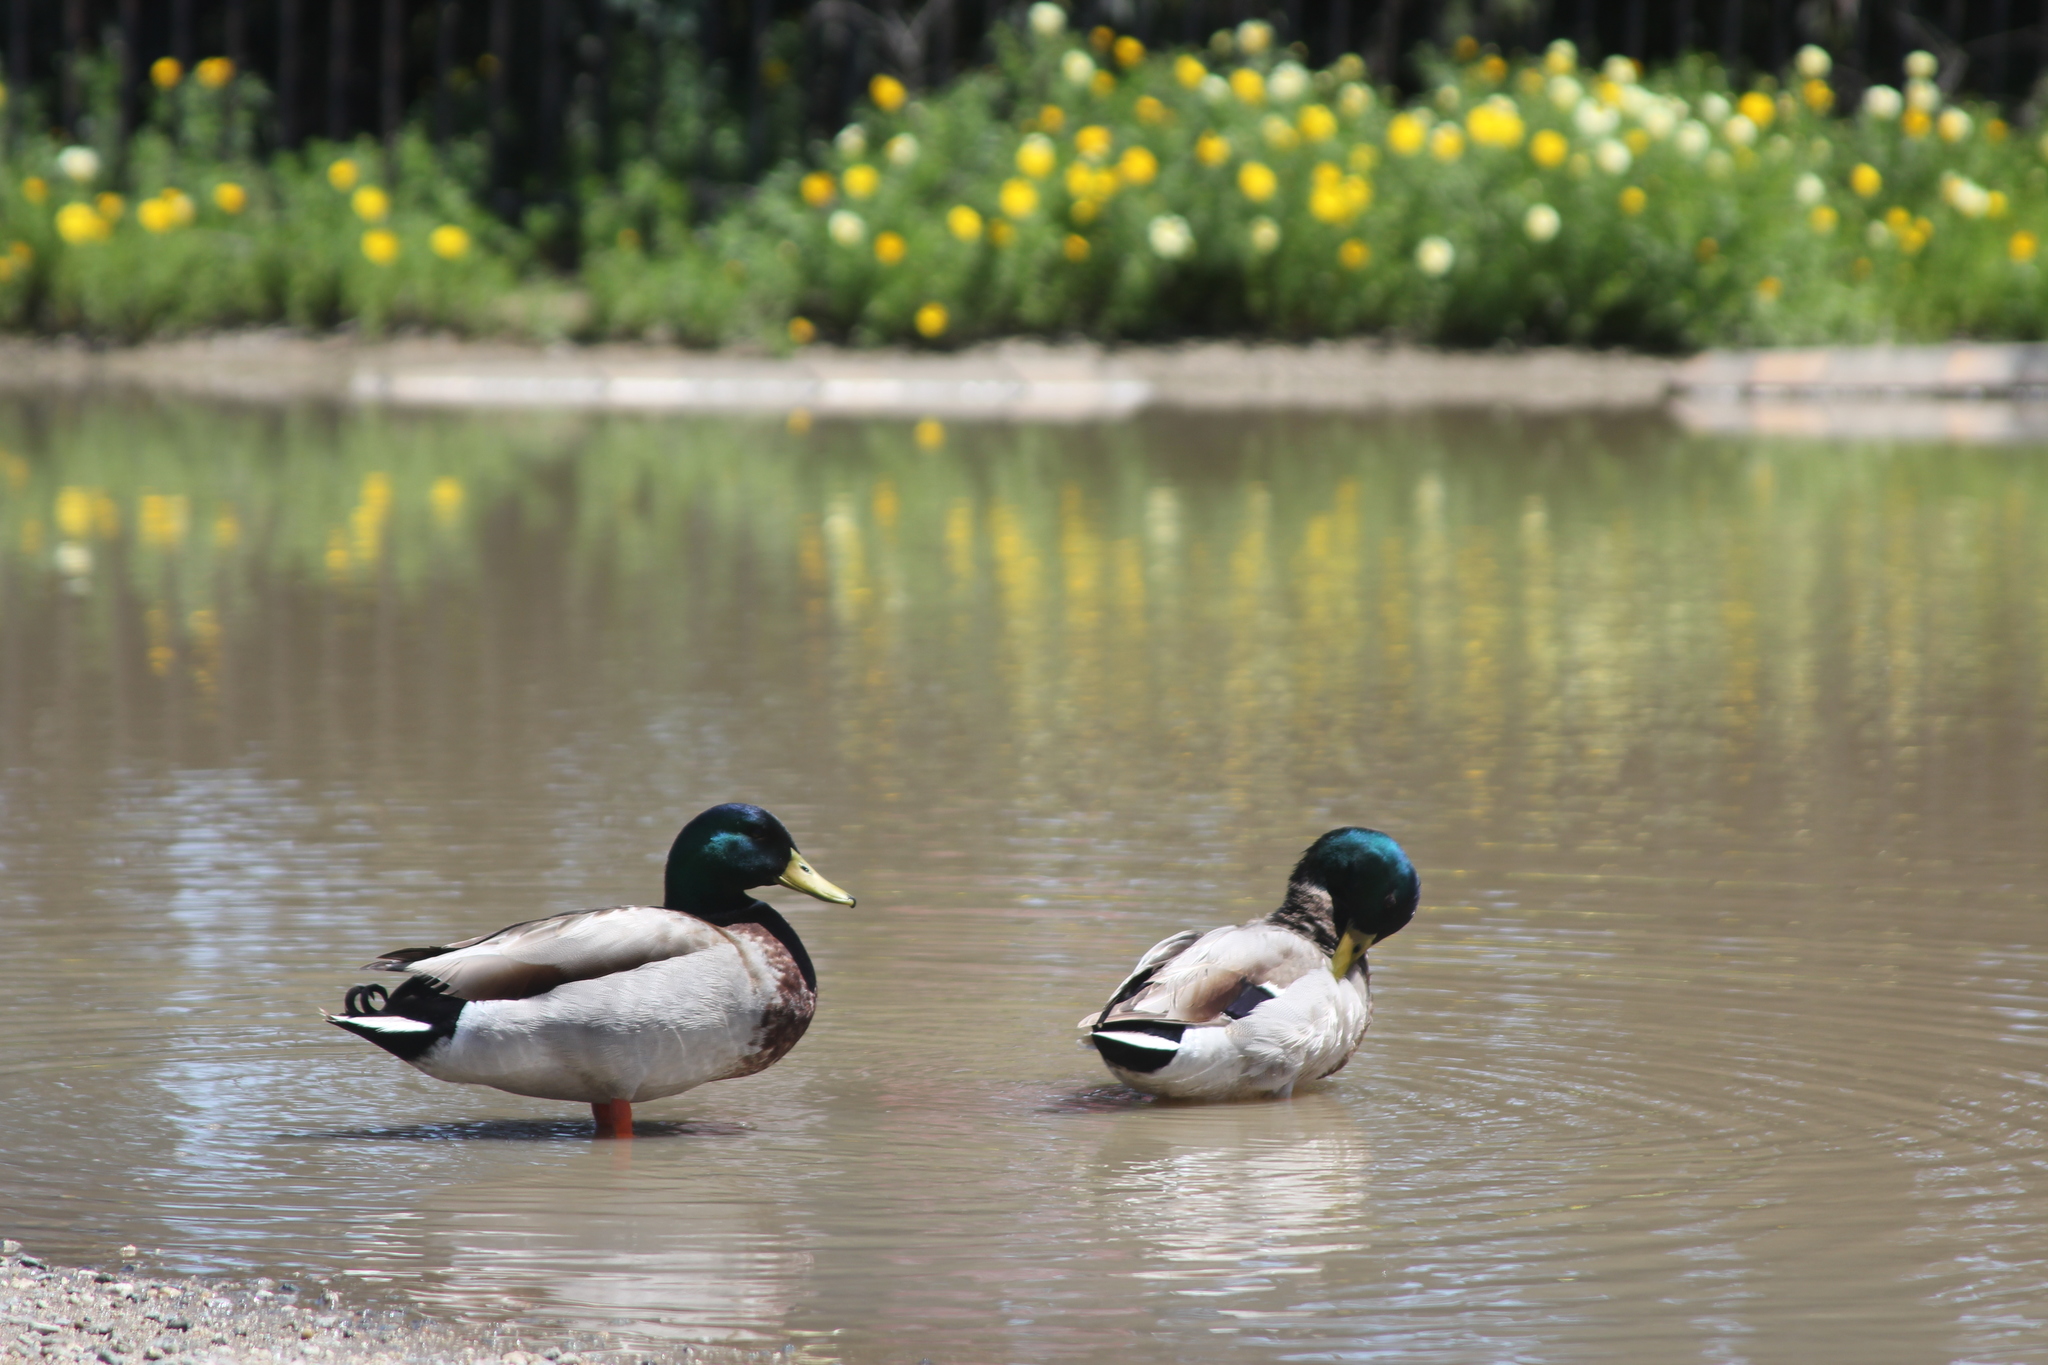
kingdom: Animalia
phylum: Chordata
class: Aves
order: Anseriformes
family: Anatidae
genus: Anas
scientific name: Anas platyrhynchos
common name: Mallard
